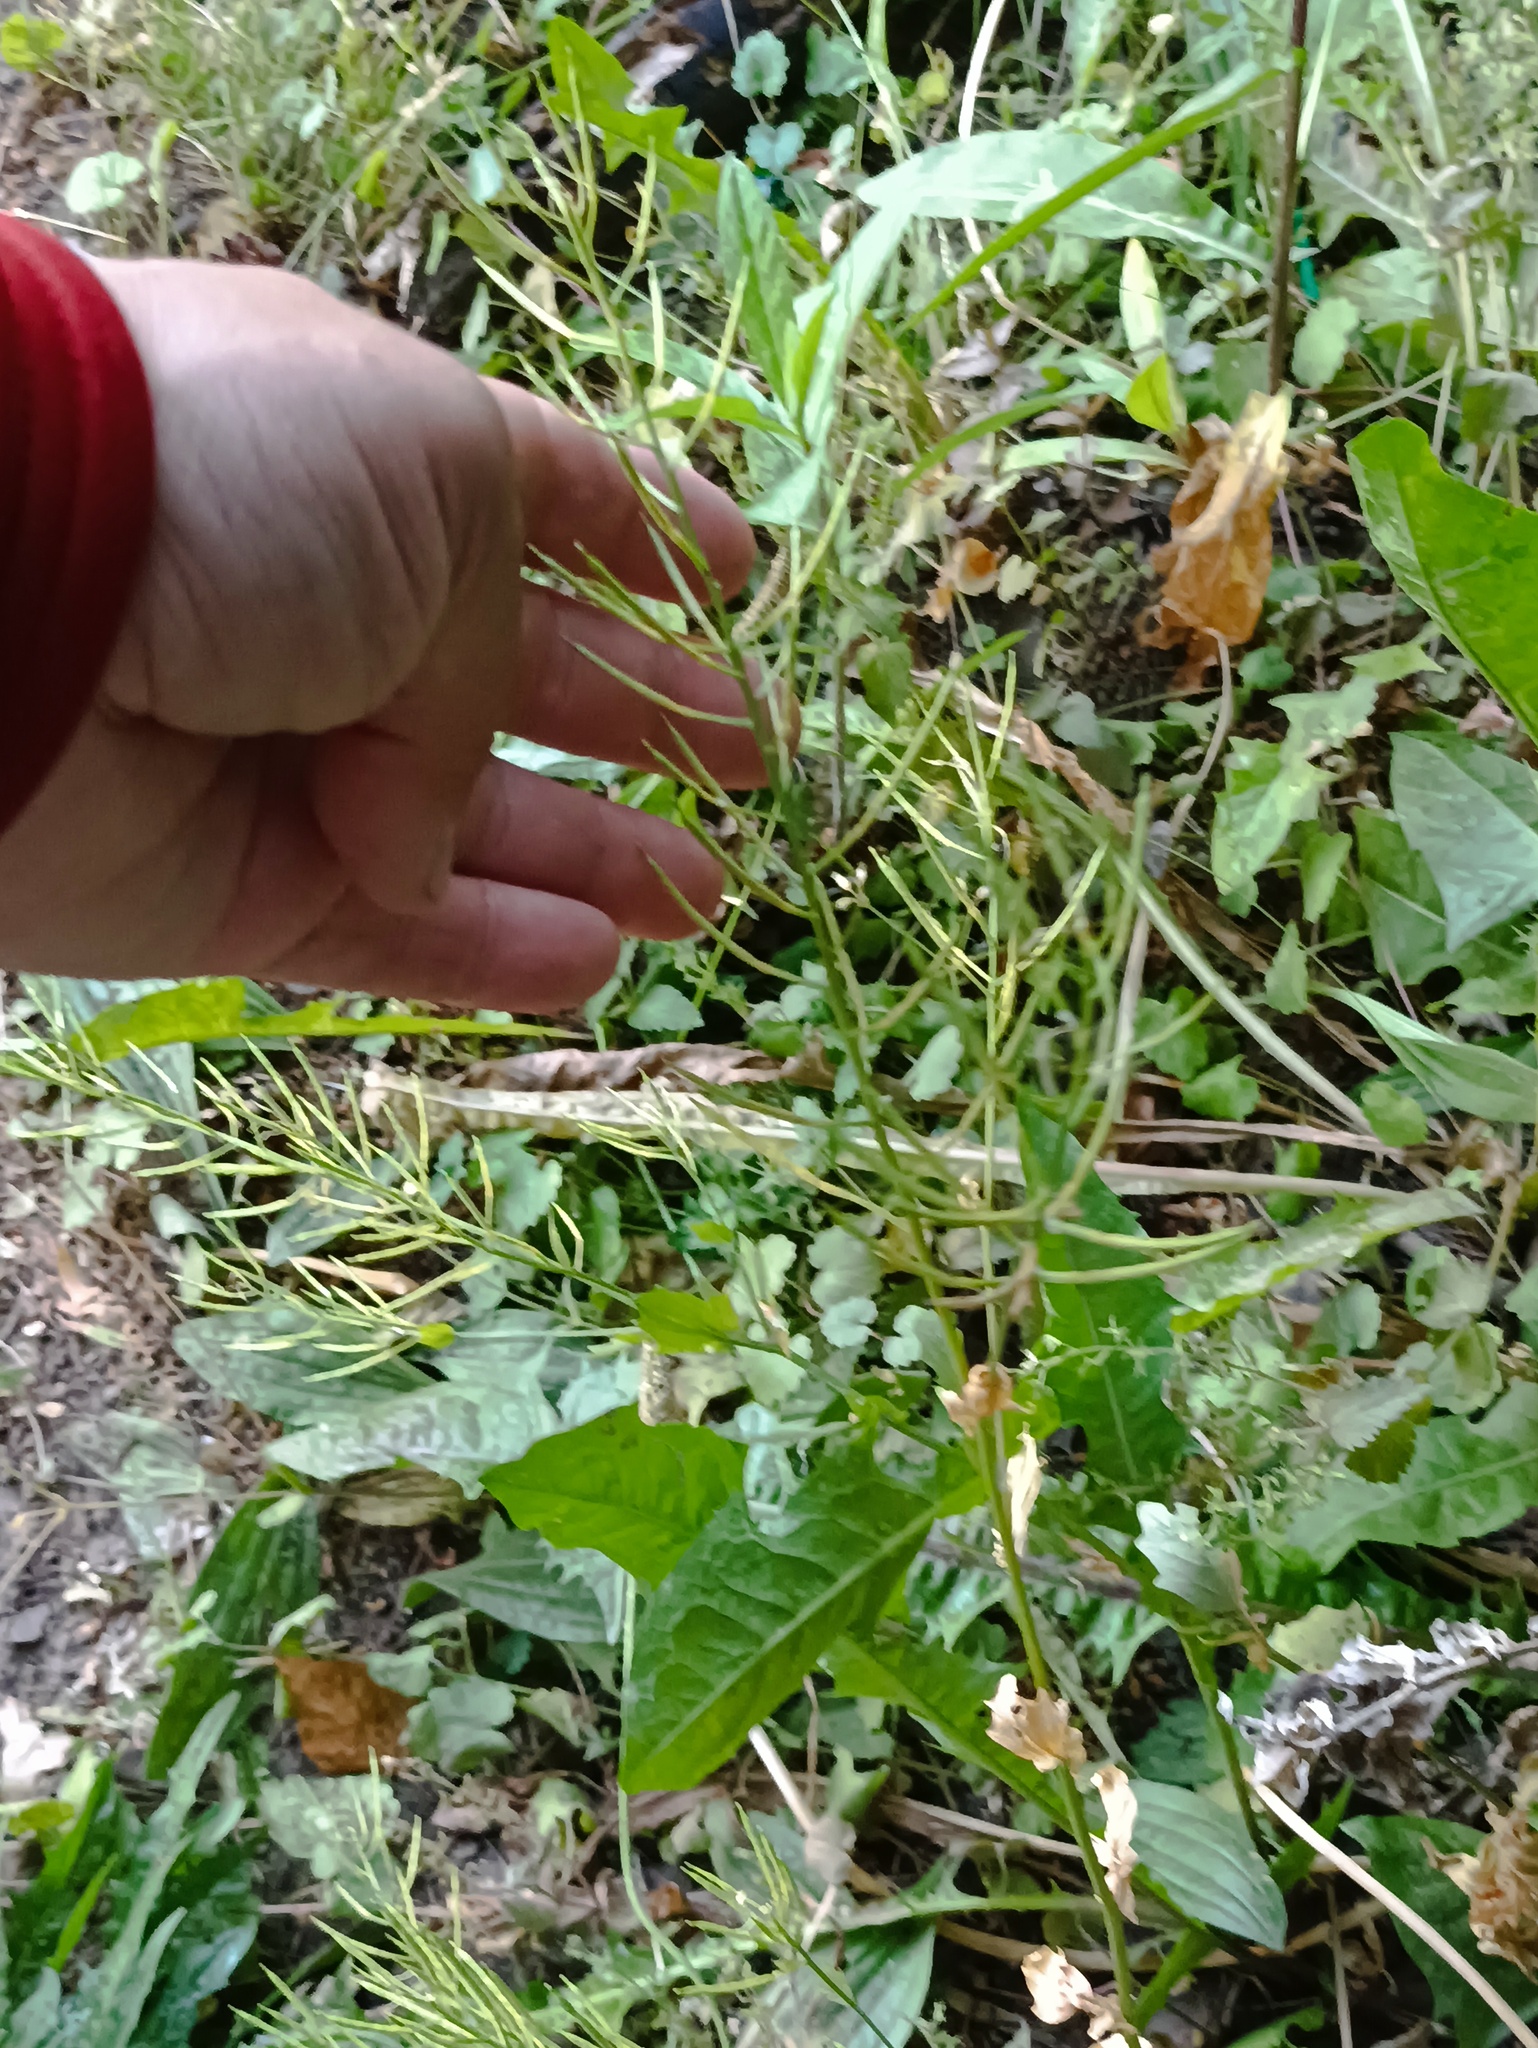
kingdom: Plantae
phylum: Tracheophyta
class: Magnoliopsida
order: Brassicales
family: Brassicaceae
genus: Alliaria
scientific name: Alliaria petiolata
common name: Garlic mustard
